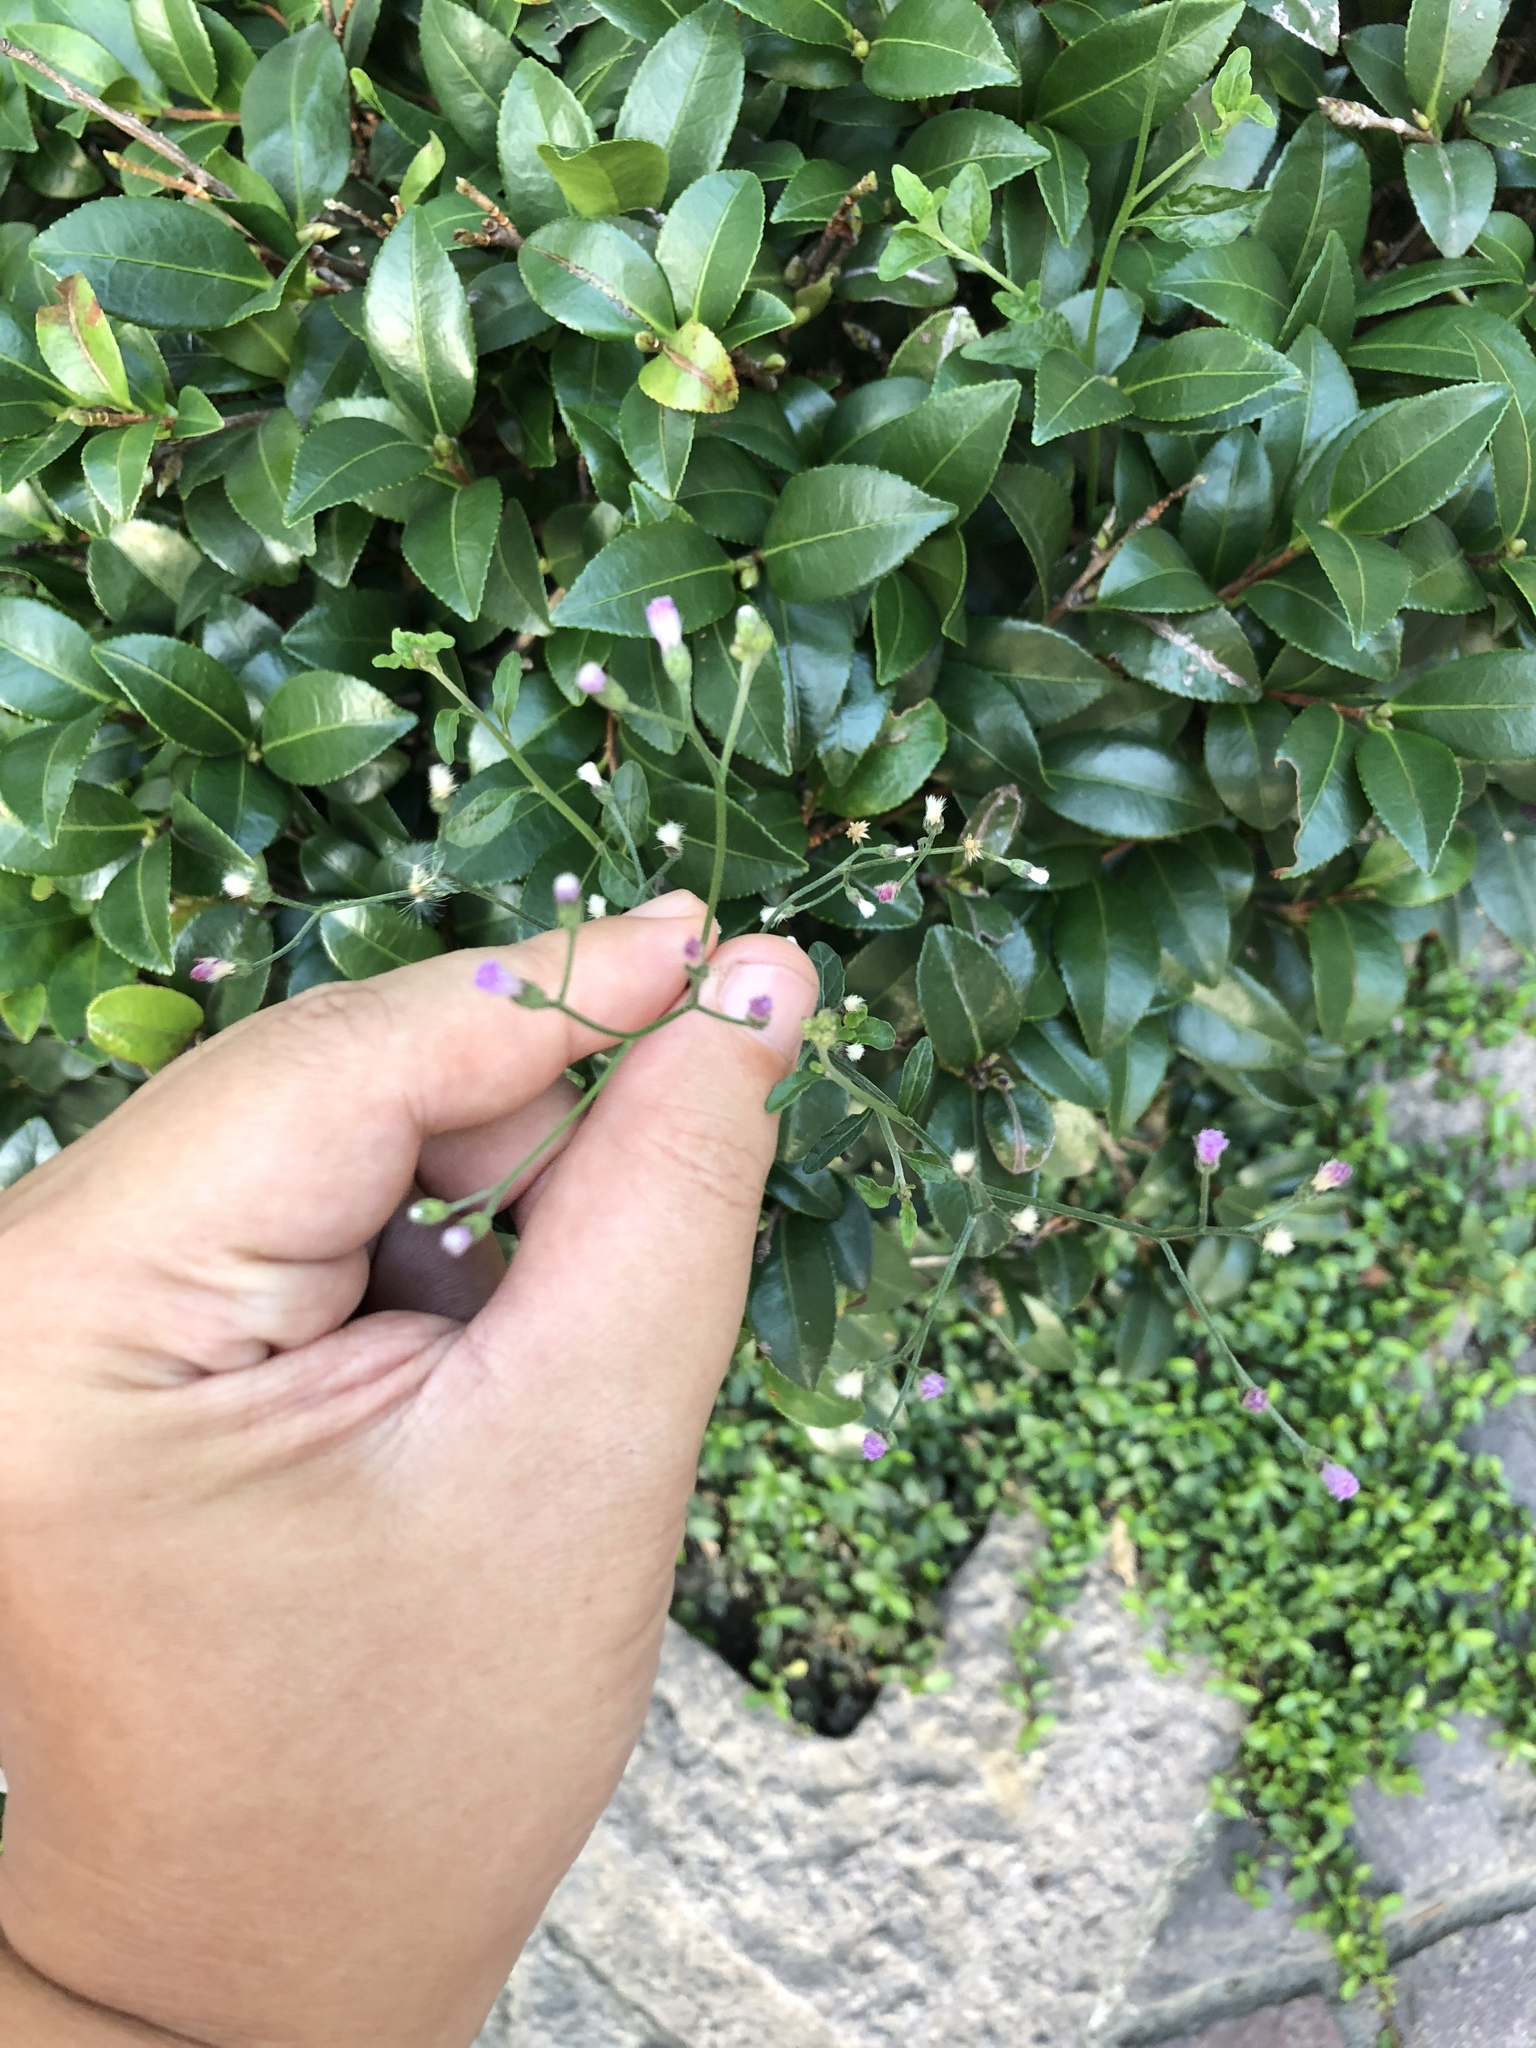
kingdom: Plantae
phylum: Tracheophyta
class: Magnoliopsida
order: Asterales
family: Asteraceae
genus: Cyanthillium
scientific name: Cyanthillium cinereum
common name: Little ironweed
